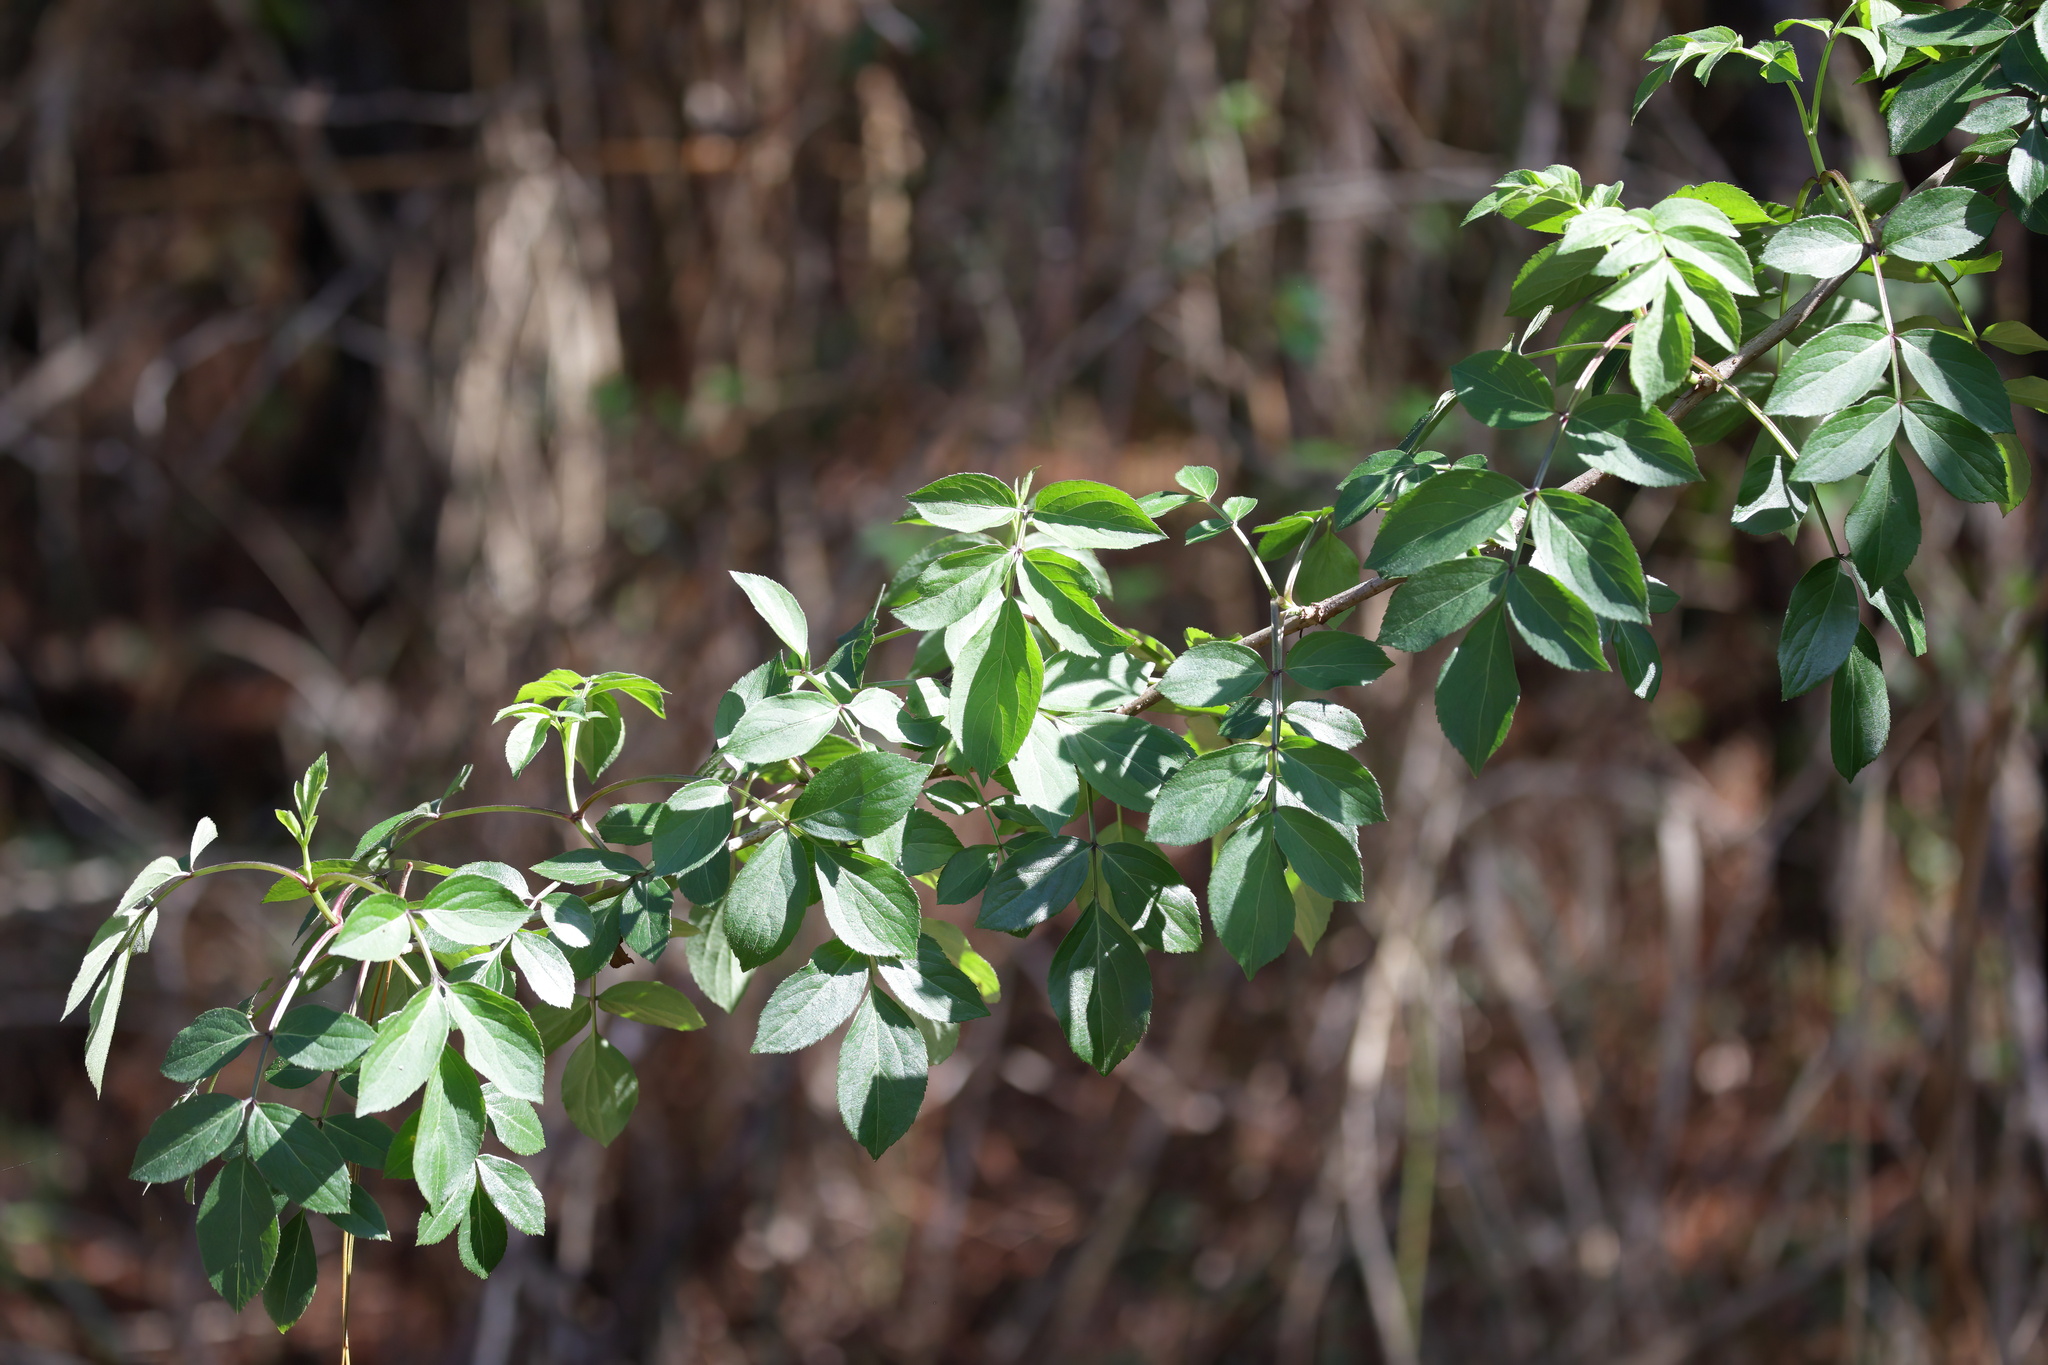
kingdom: Plantae
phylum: Tracheophyta
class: Magnoliopsida
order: Dipsacales
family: Viburnaceae
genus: Sambucus
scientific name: Sambucus canadensis
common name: American elder
